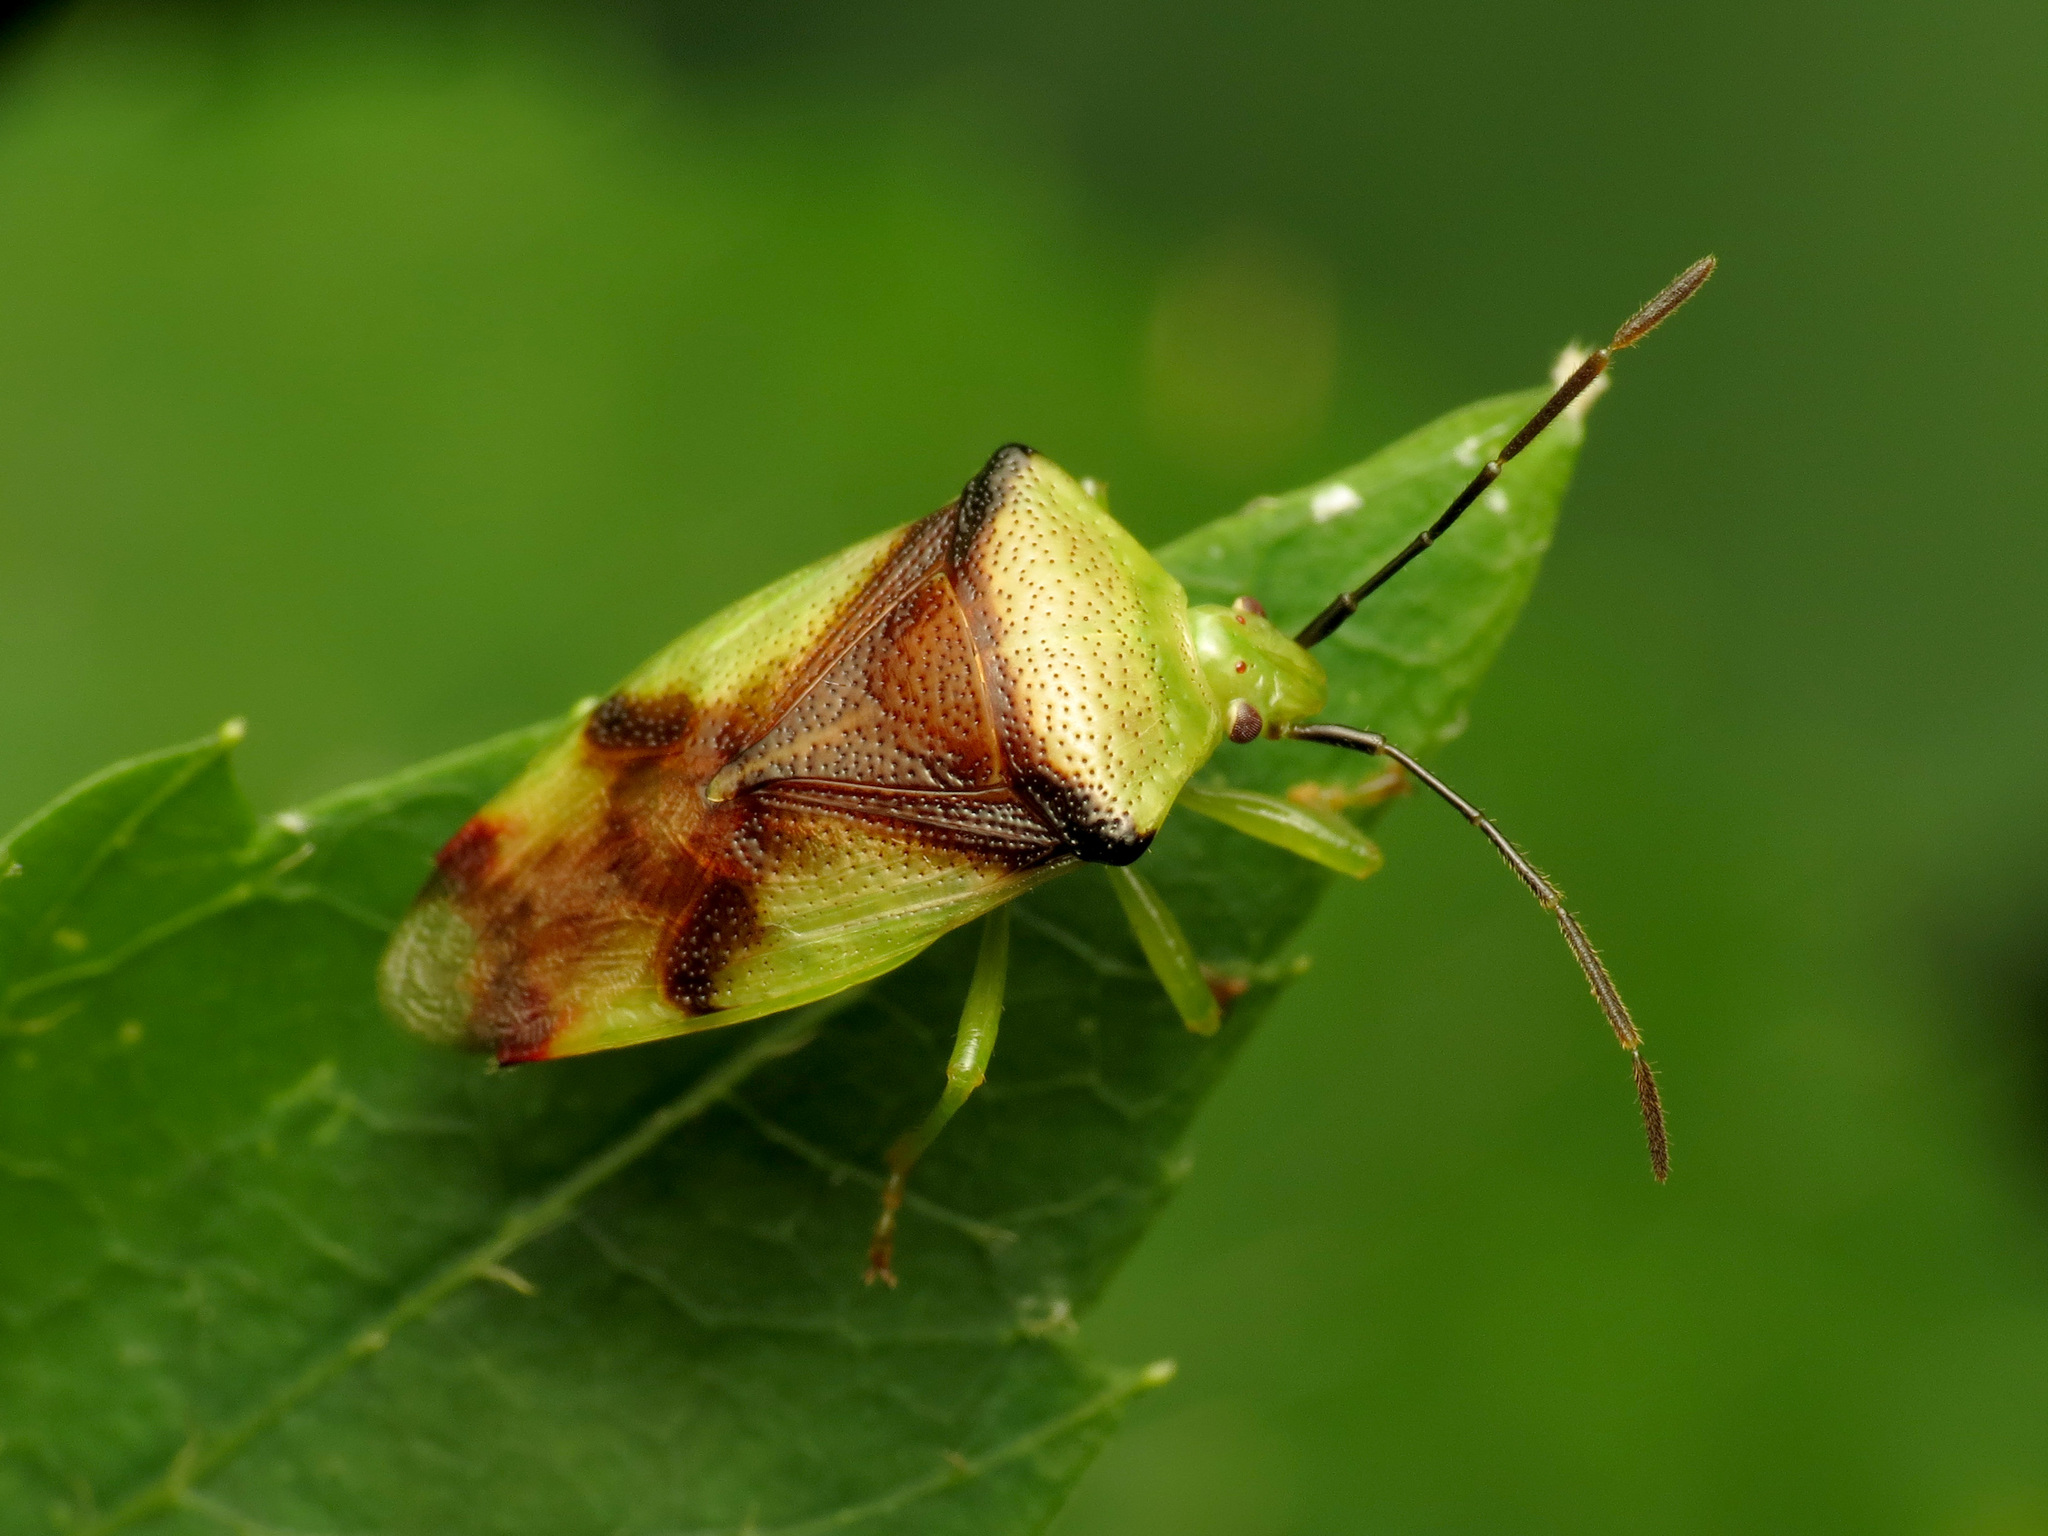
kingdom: Animalia
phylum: Arthropoda
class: Insecta
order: Hemiptera
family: Acanthosomatidae
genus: Elasmostethus
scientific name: Elasmostethus atricornis
